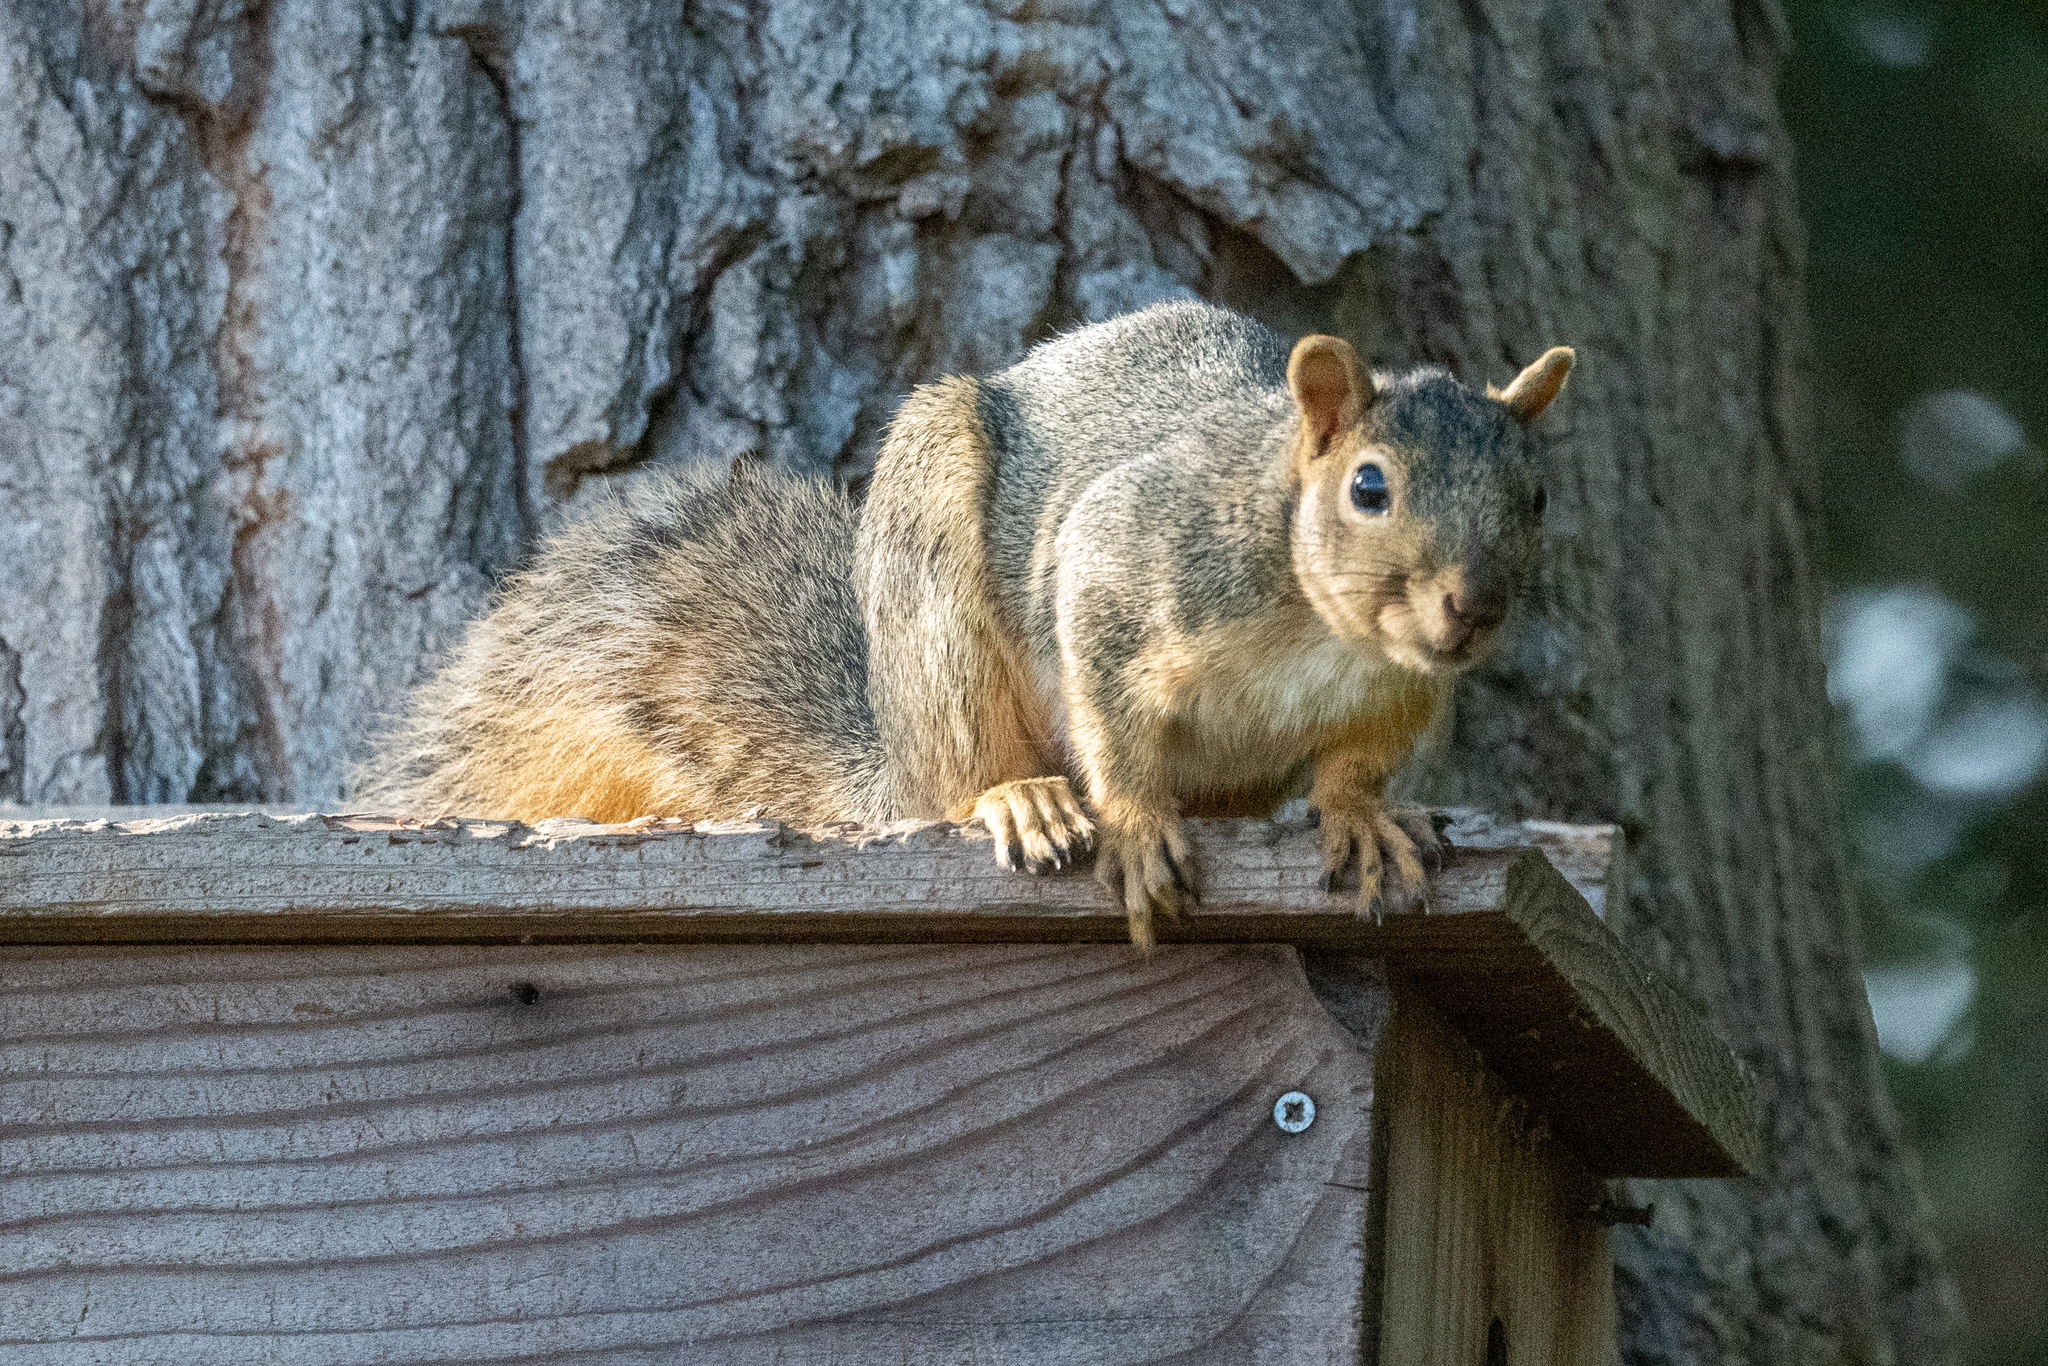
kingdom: Animalia
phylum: Chordata
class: Mammalia
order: Rodentia
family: Sciuridae
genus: Sciurus
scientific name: Sciurus niger
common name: Fox squirrel
